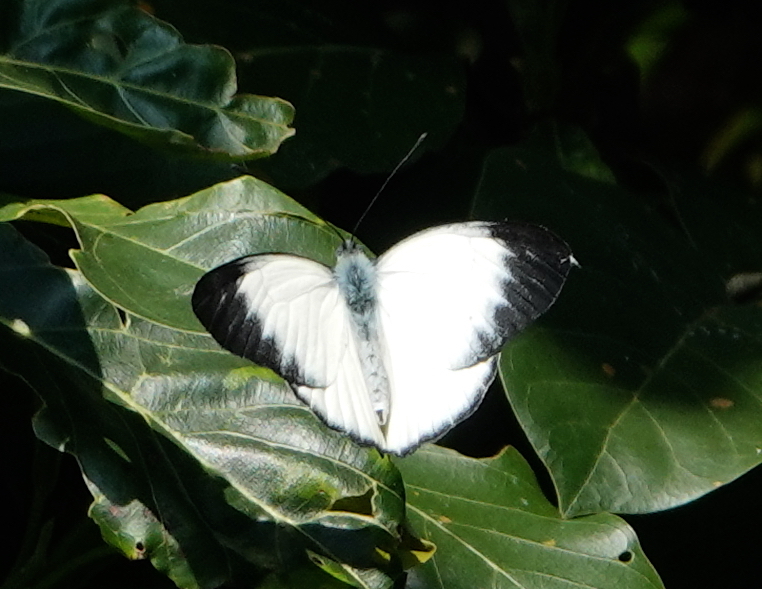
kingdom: Animalia
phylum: Arthropoda
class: Insecta
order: Lepidoptera
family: Pieridae
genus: Delias
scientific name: Delias belisama
